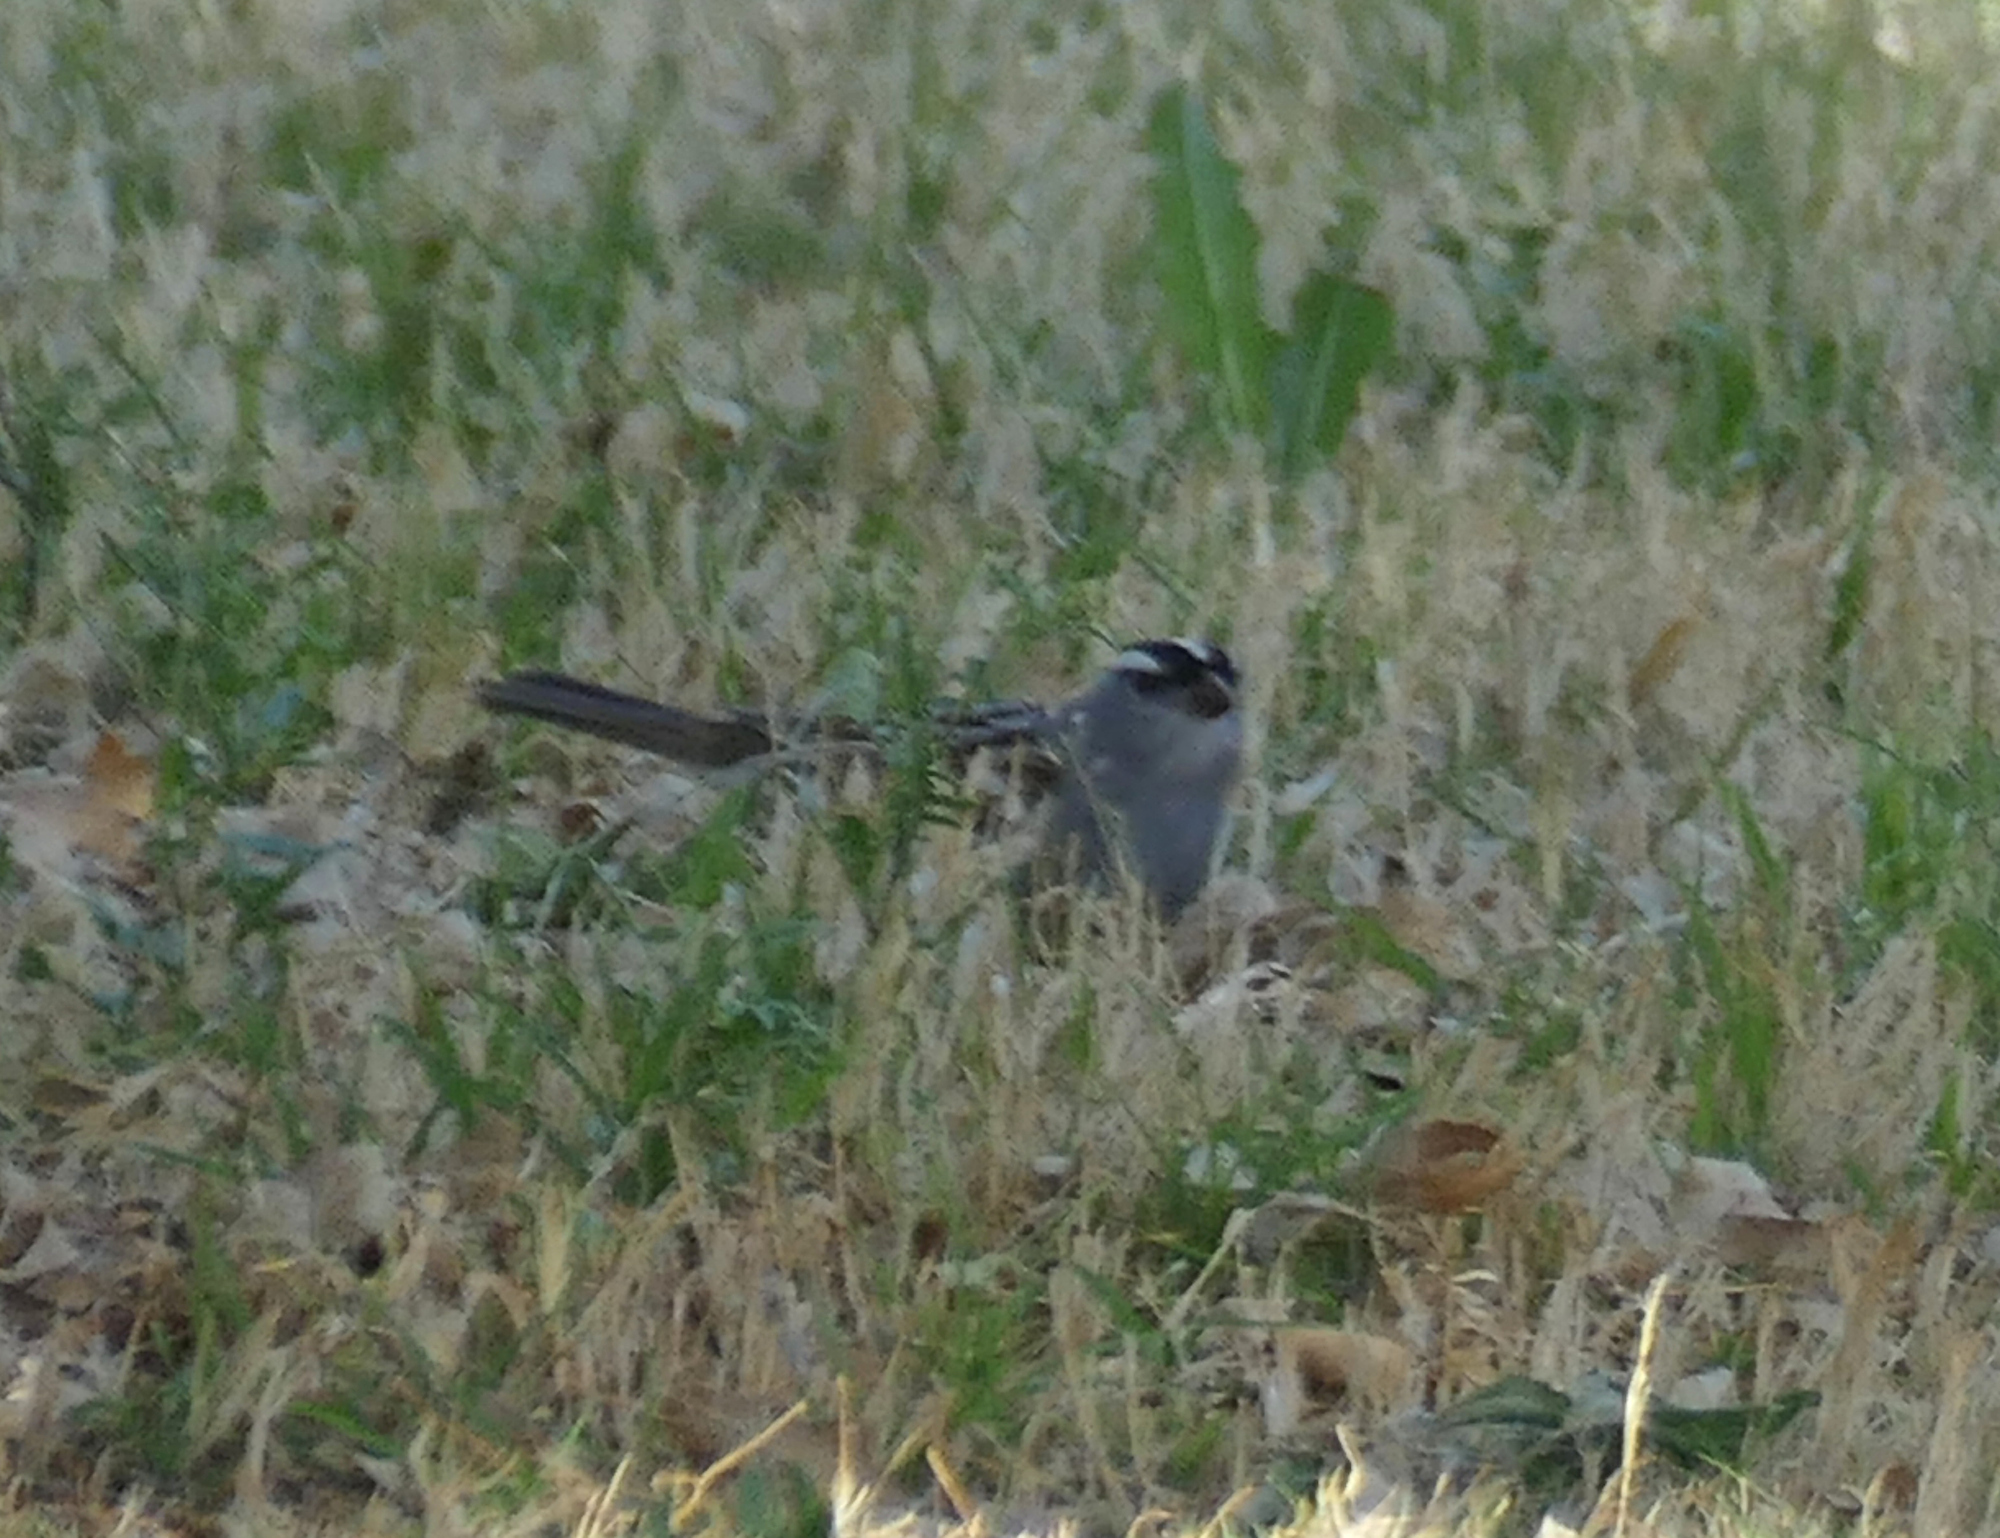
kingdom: Animalia
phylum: Chordata
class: Aves
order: Passeriformes
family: Passerellidae
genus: Zonotrichia
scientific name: Zonotrichia leucophrys
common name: White-crowned sparrow
